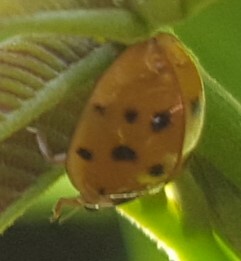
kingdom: Animalia
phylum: Arthropoda
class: Insecta
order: Coleoptera
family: Coccinellidae
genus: Harmonia
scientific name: Harmonia axyridis
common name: Harlequin ladybird
